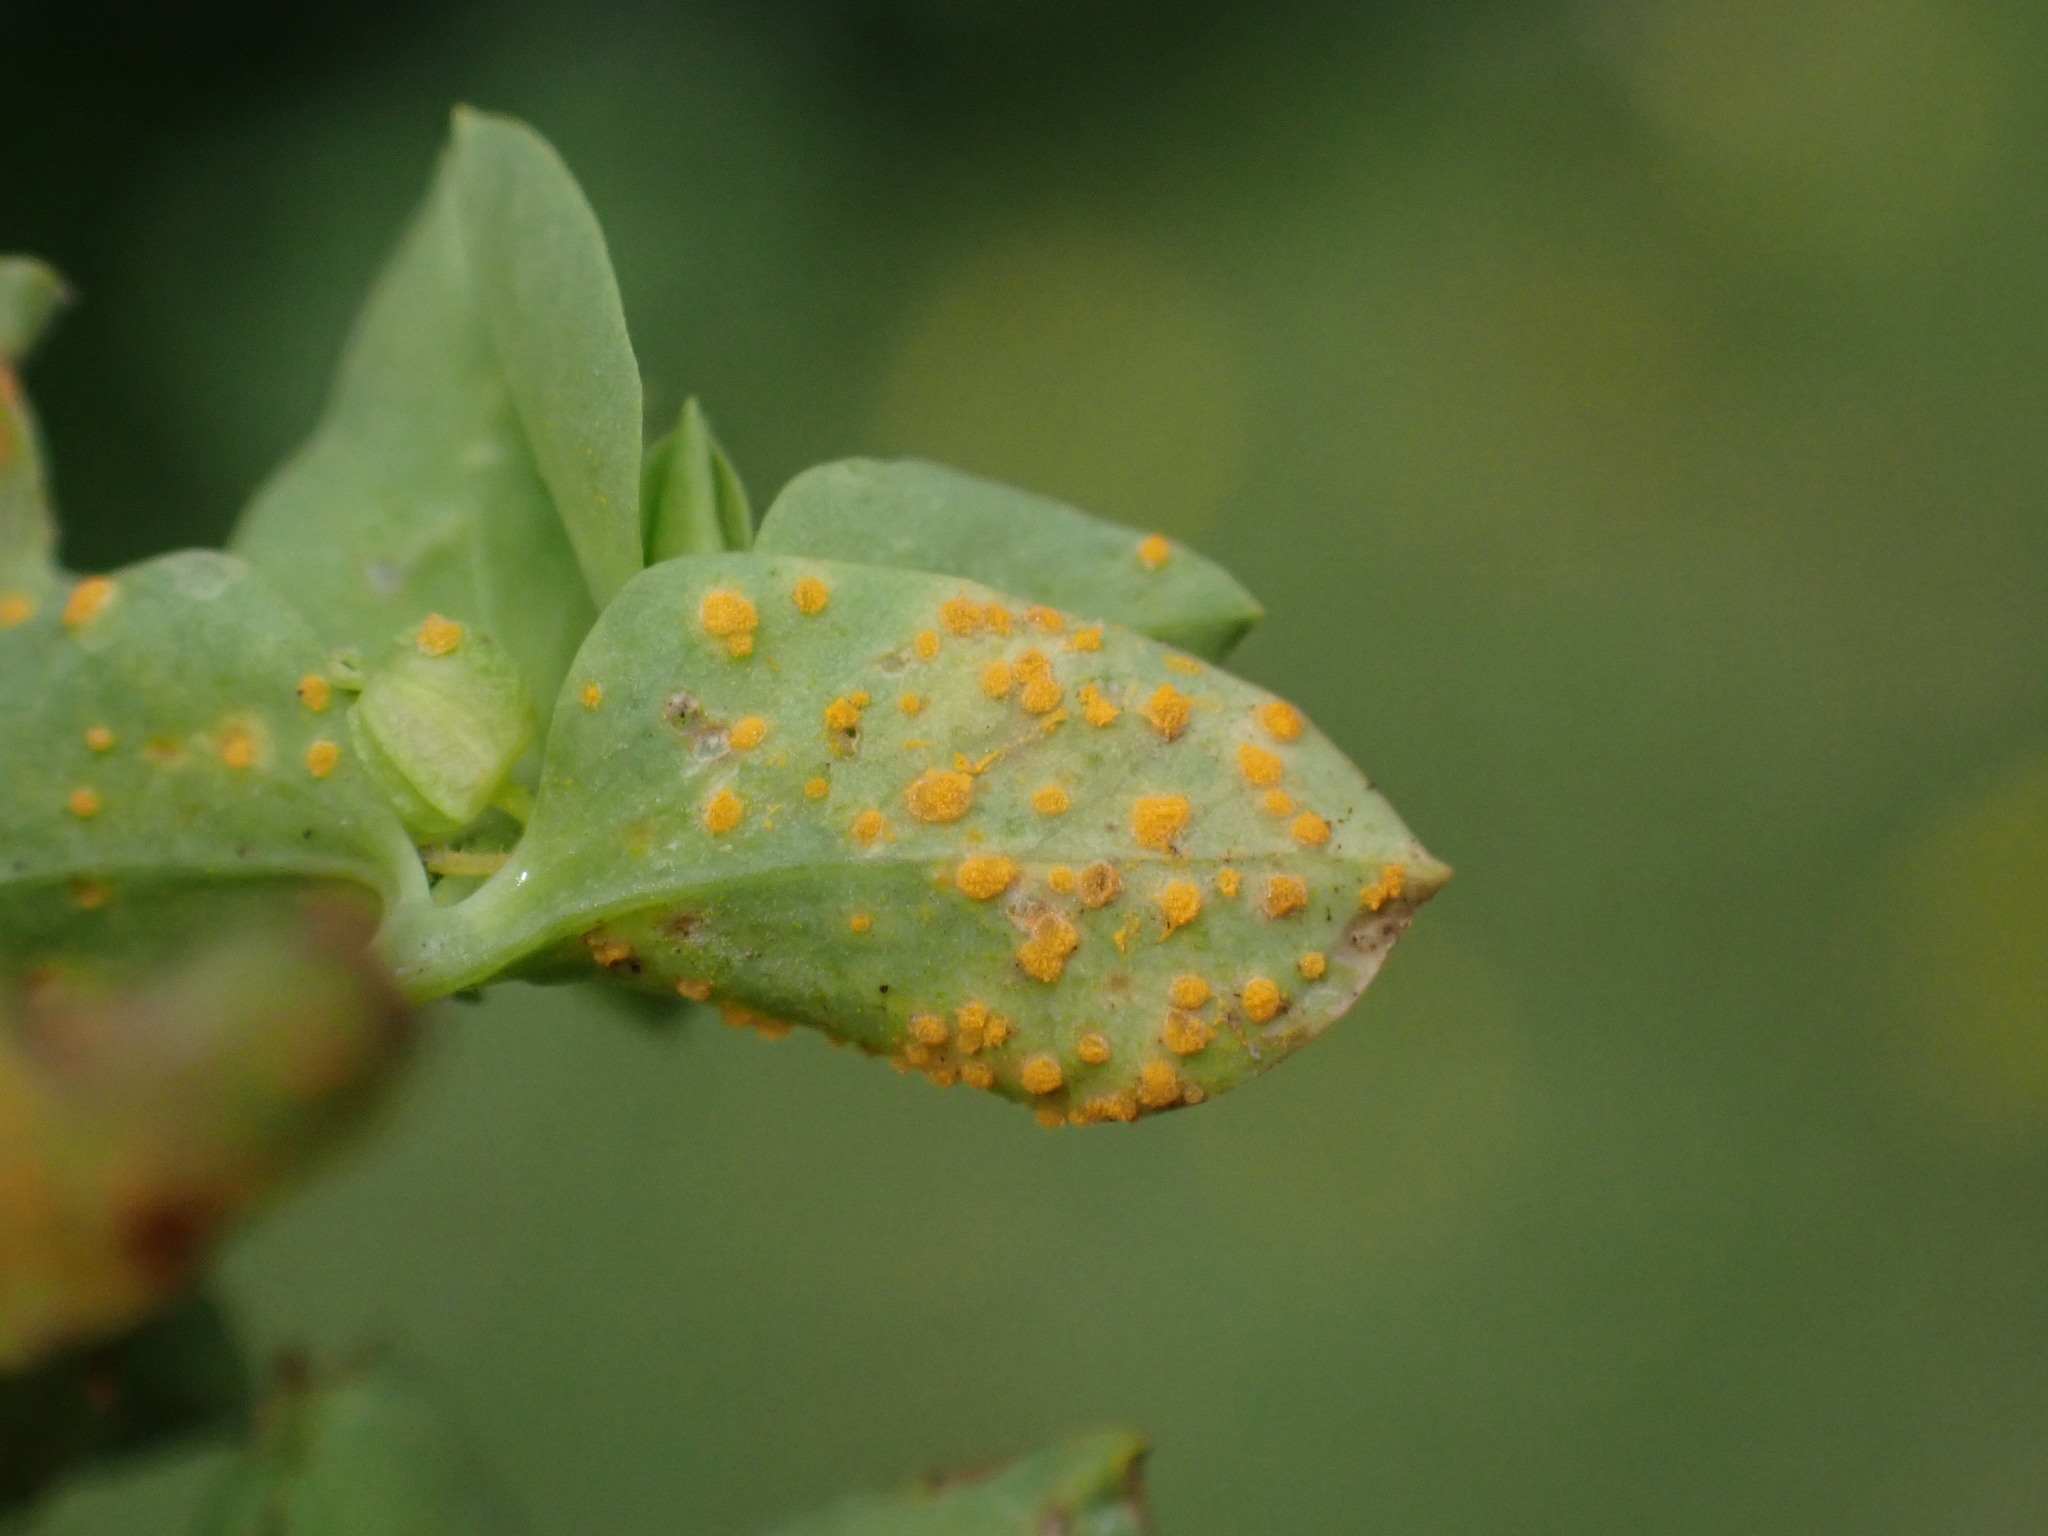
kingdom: Fungi
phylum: Basidiomycota
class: Pucciniomycetes
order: Pucciniales
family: Melampsoraceae
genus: Melampsora
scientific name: Melampsora euphorbiae
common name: Spurge rust
